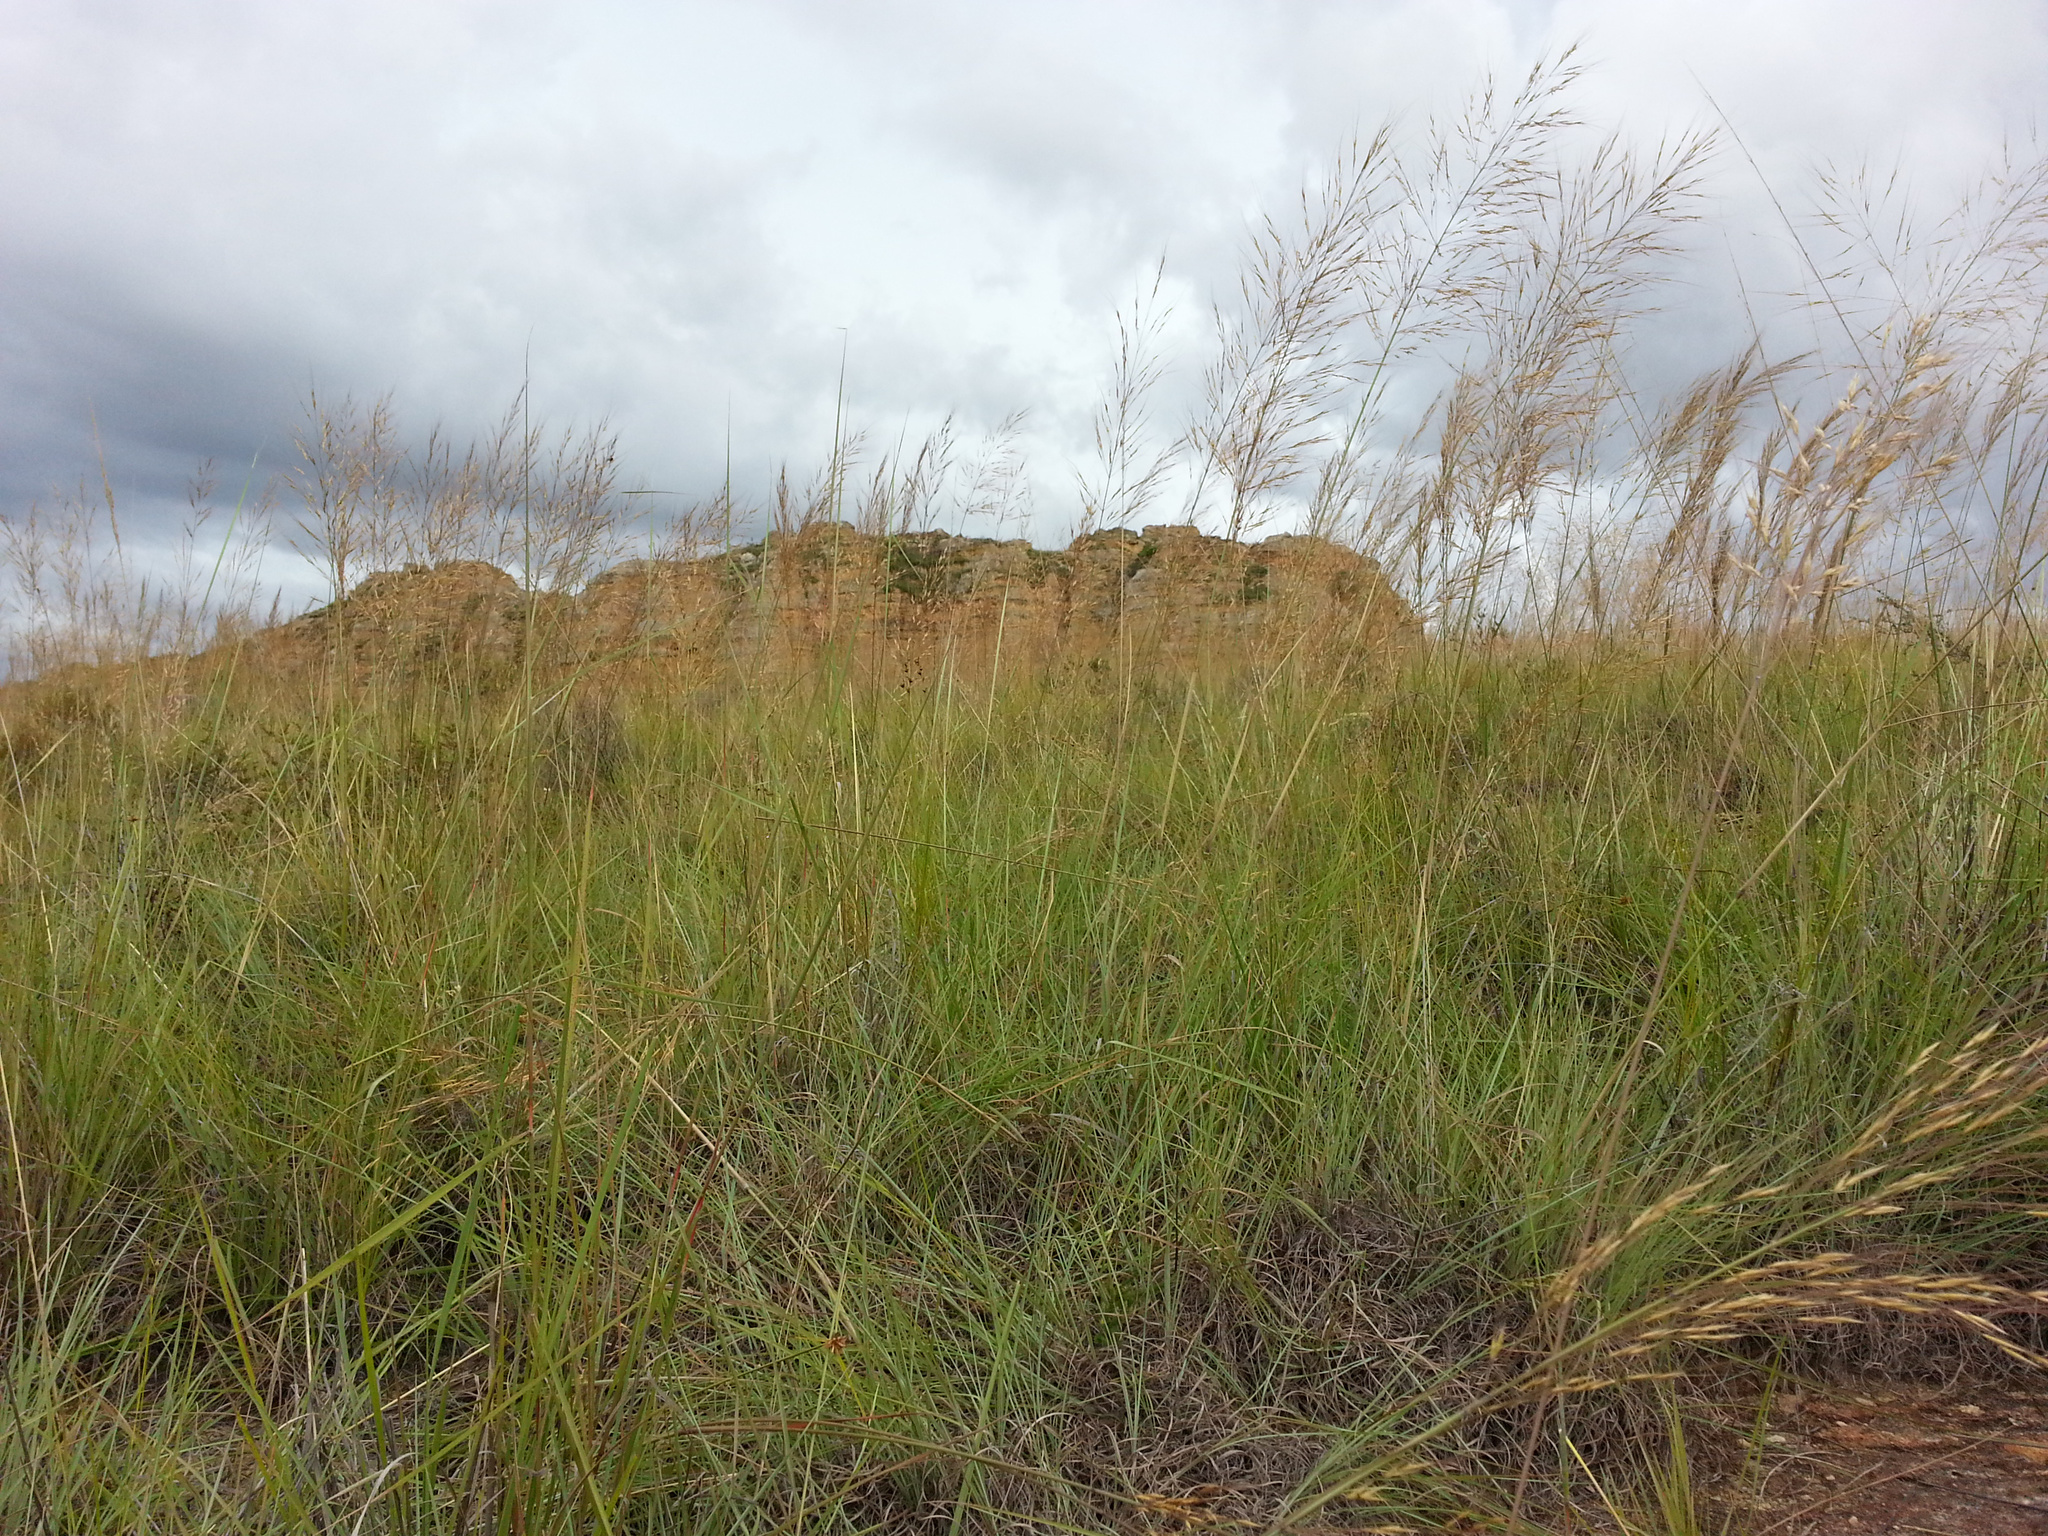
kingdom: Plantae
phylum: Tracheophyta
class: Liliopsida
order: Poales
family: Poaceae
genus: Loudetia
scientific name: Loudetia simplex
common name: Common russet grass
